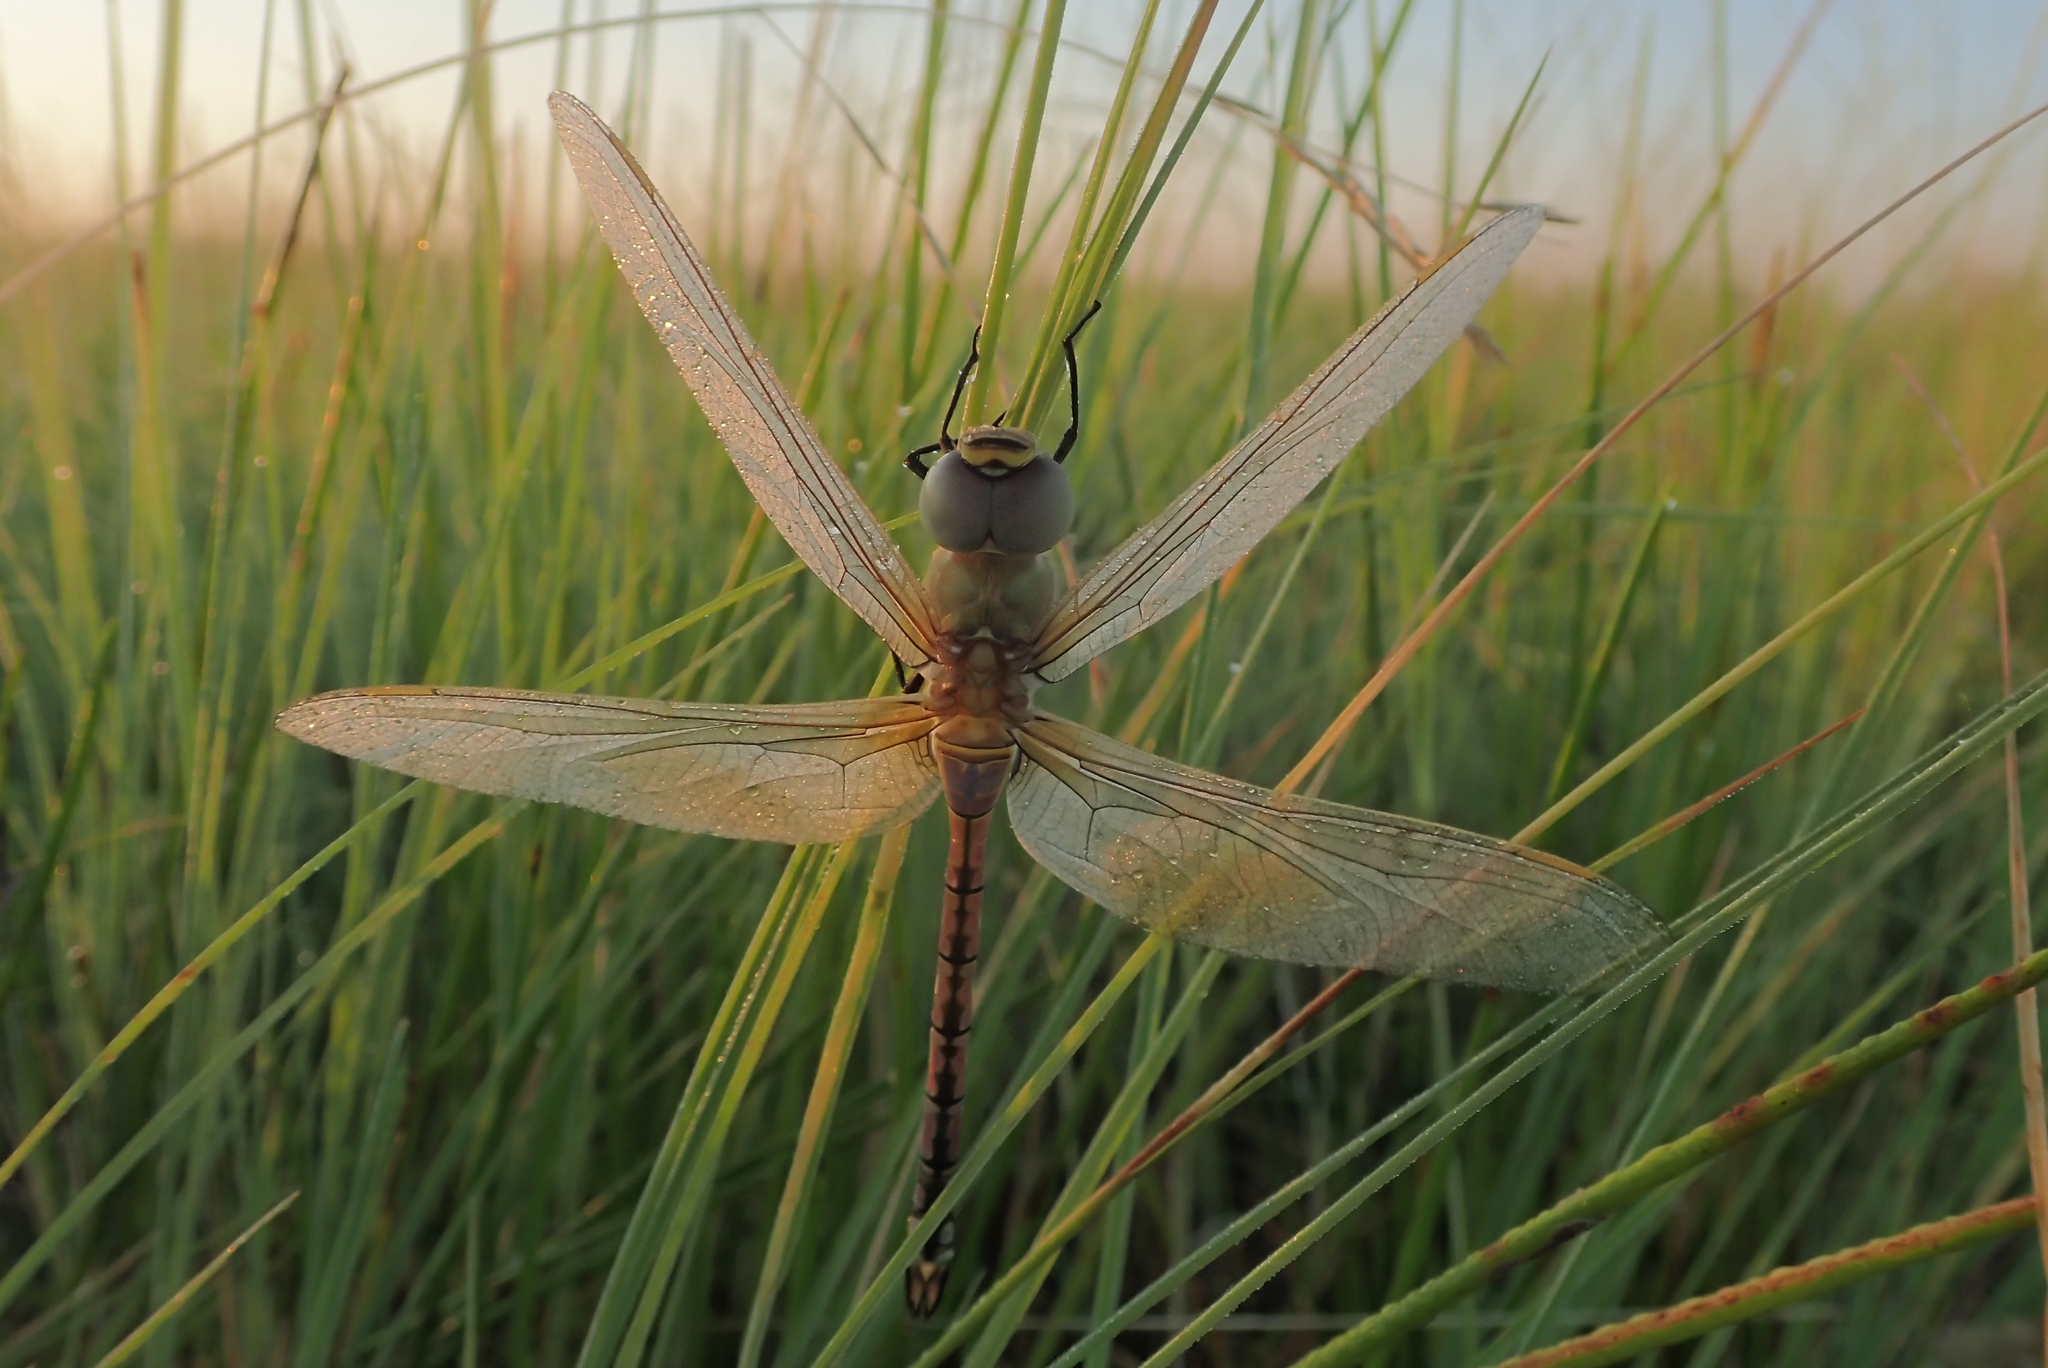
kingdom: Animalia
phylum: Arthropoda
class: Insecta
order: Odonata
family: Aeshnidae
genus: Anax
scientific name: Anax ephippiger
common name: Vagrant emperor
